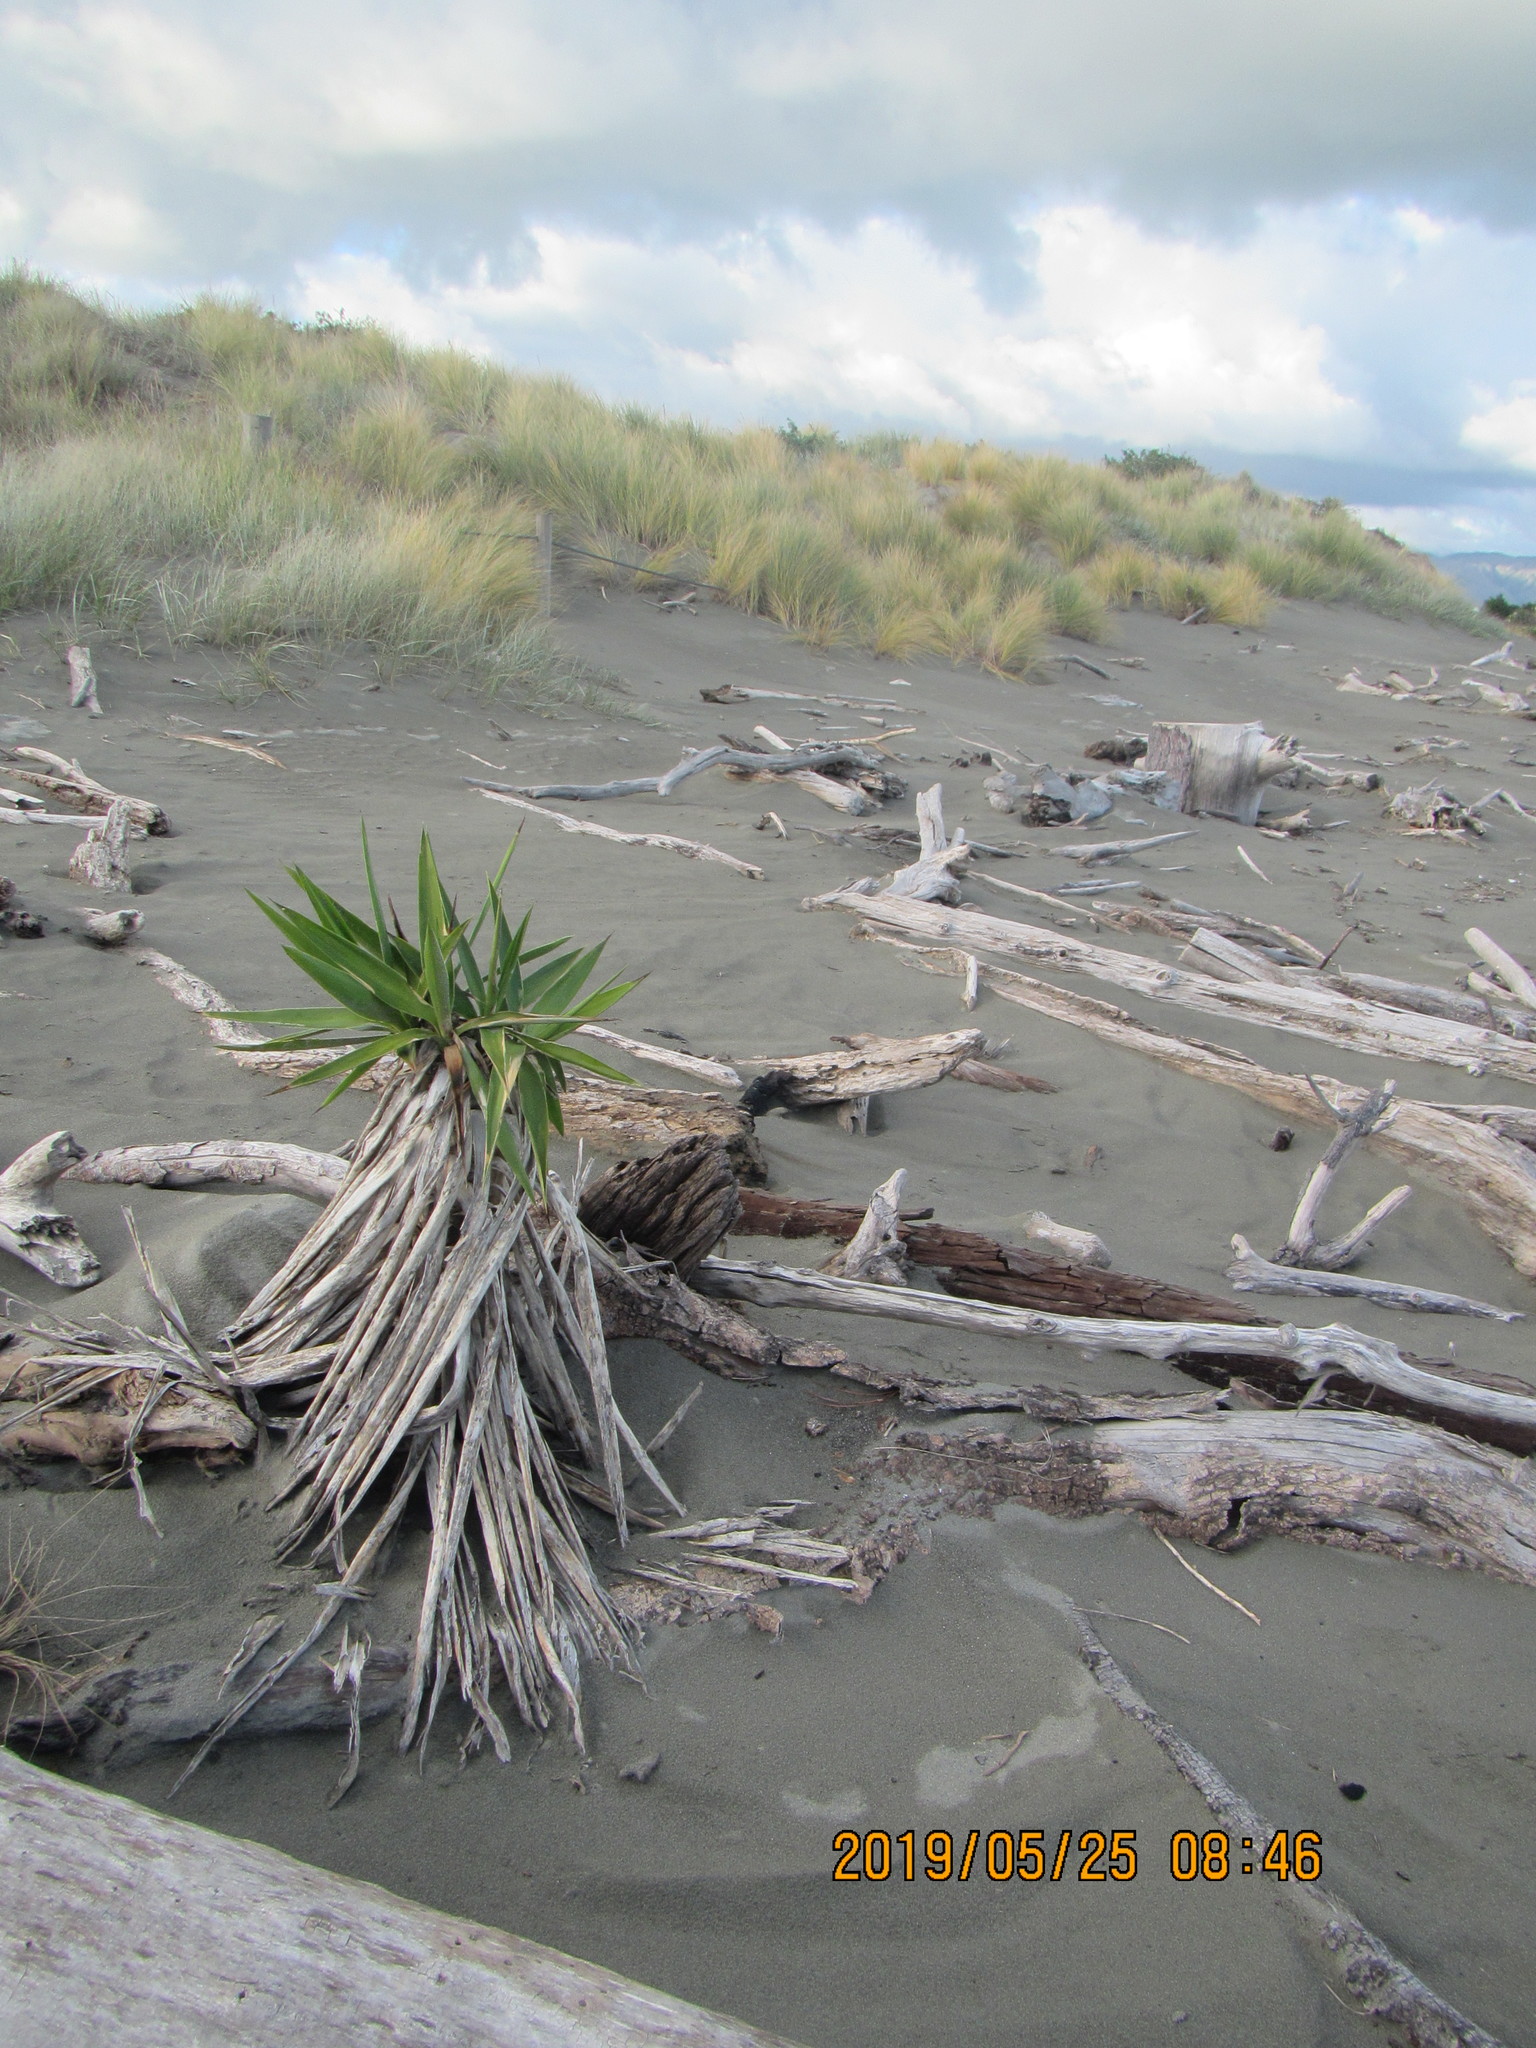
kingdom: Plantae
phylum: Tracheophyta
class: Liliopsida
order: Asparagales
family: Asparagaceae
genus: Yucca
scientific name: Yucca gloriosa
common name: Spanish-dagger
